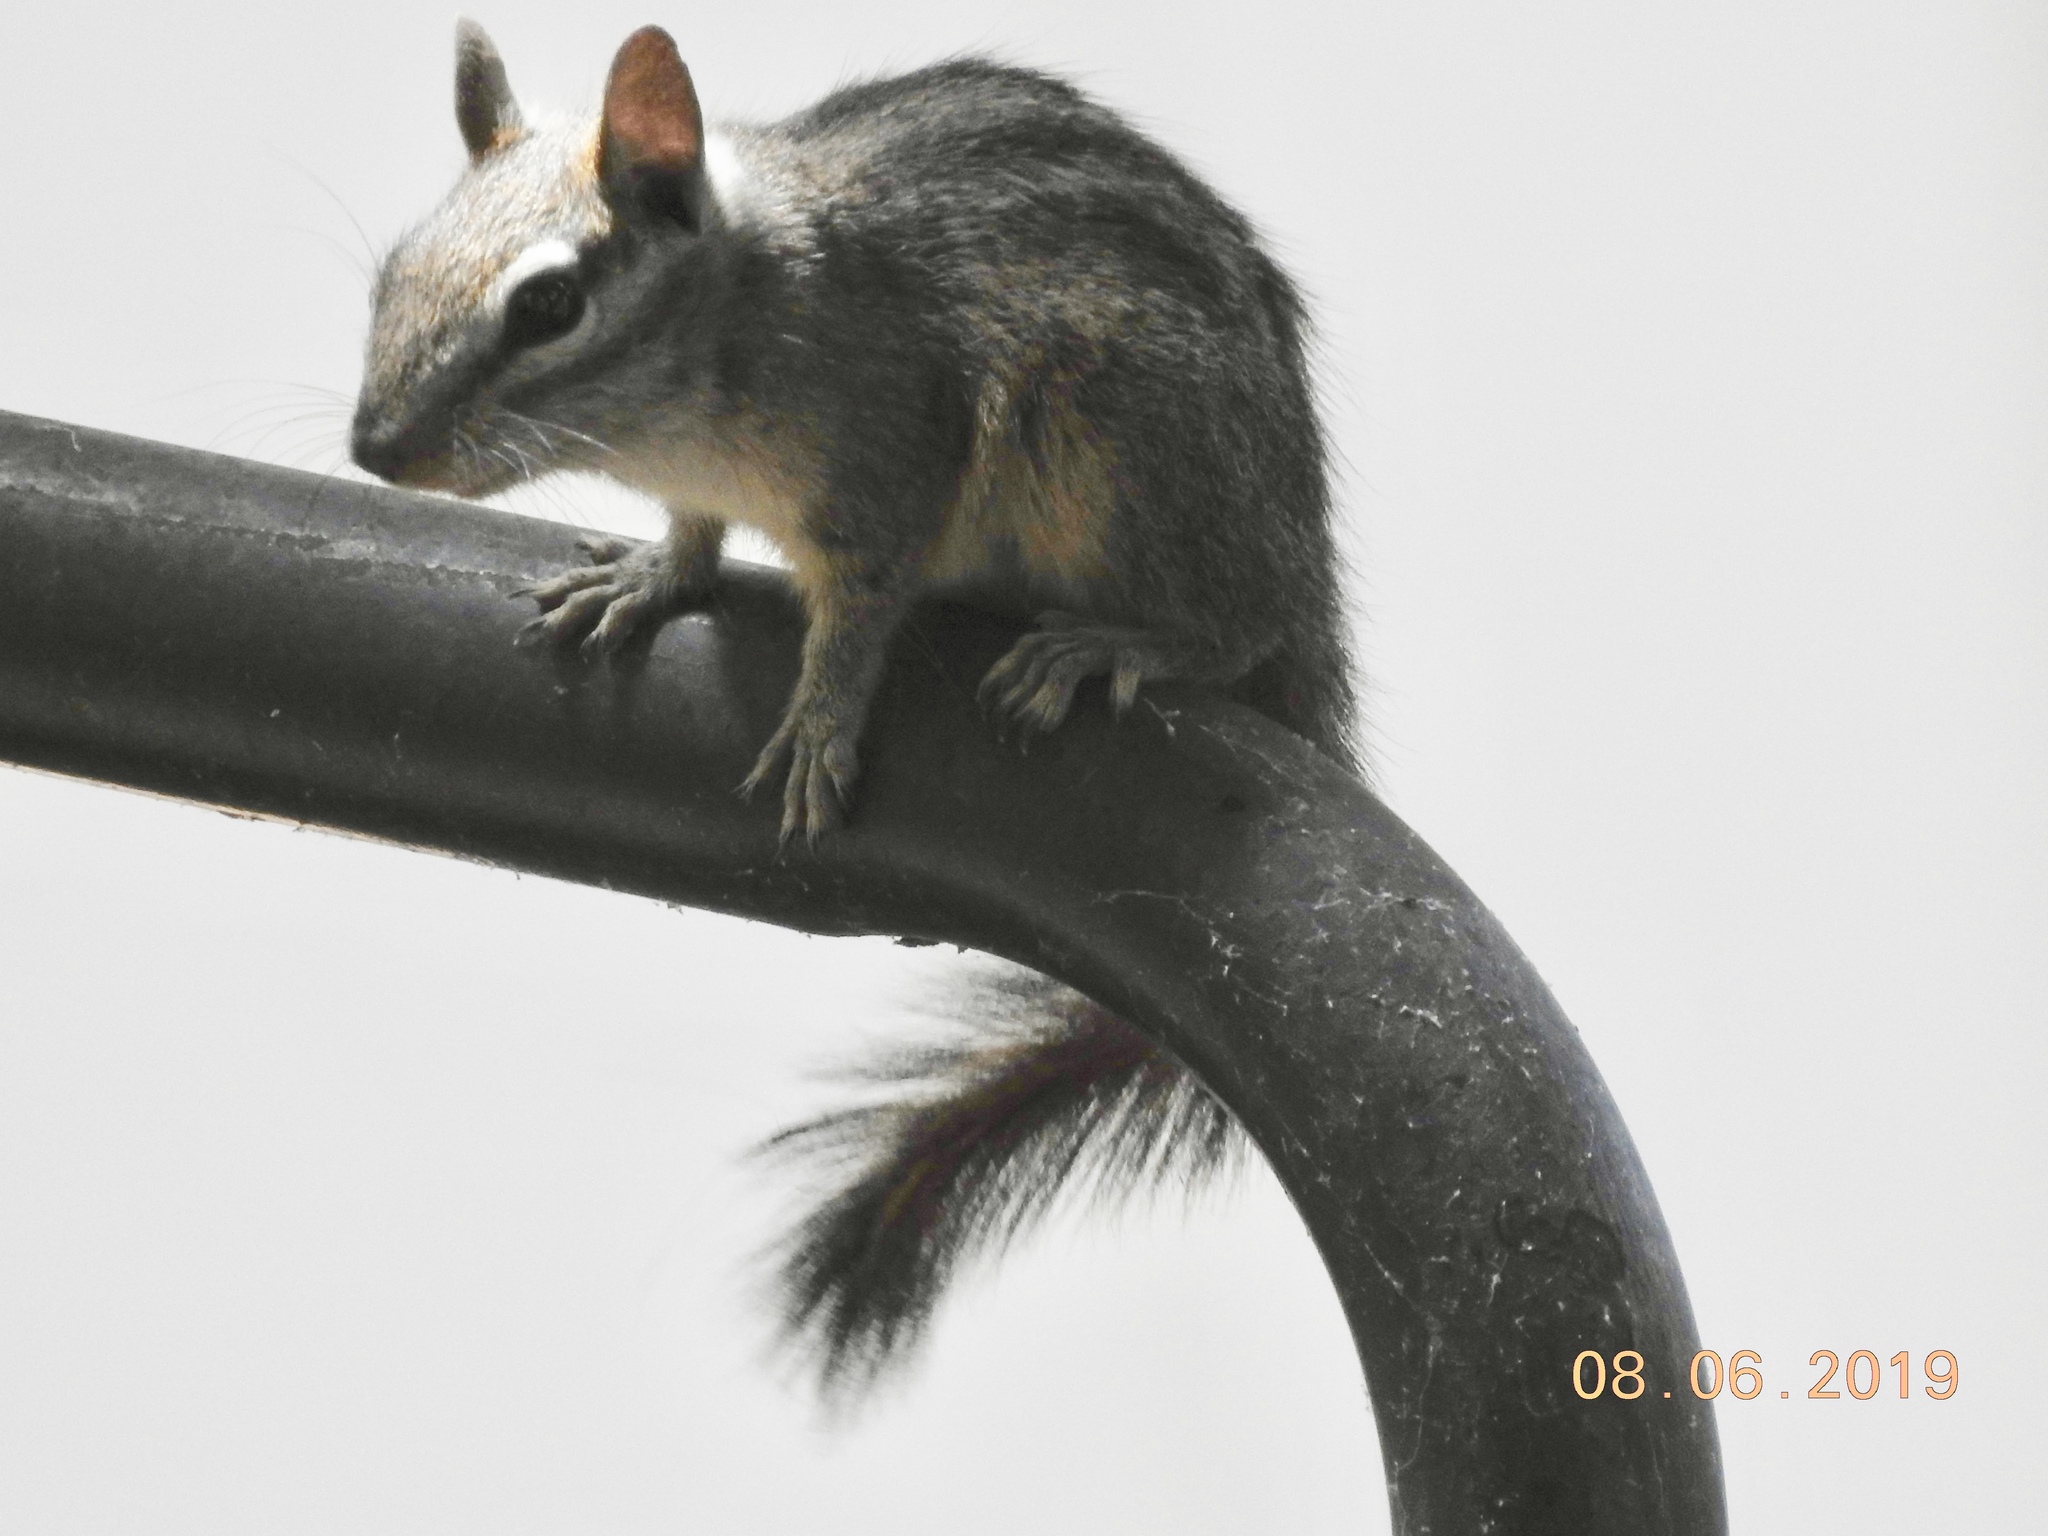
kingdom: Animalia
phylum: Chordata
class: Mammalia
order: Rodentia
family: Sciuridae
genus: Tamias
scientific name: Tamias merriami
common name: Merriam's chipmunk
